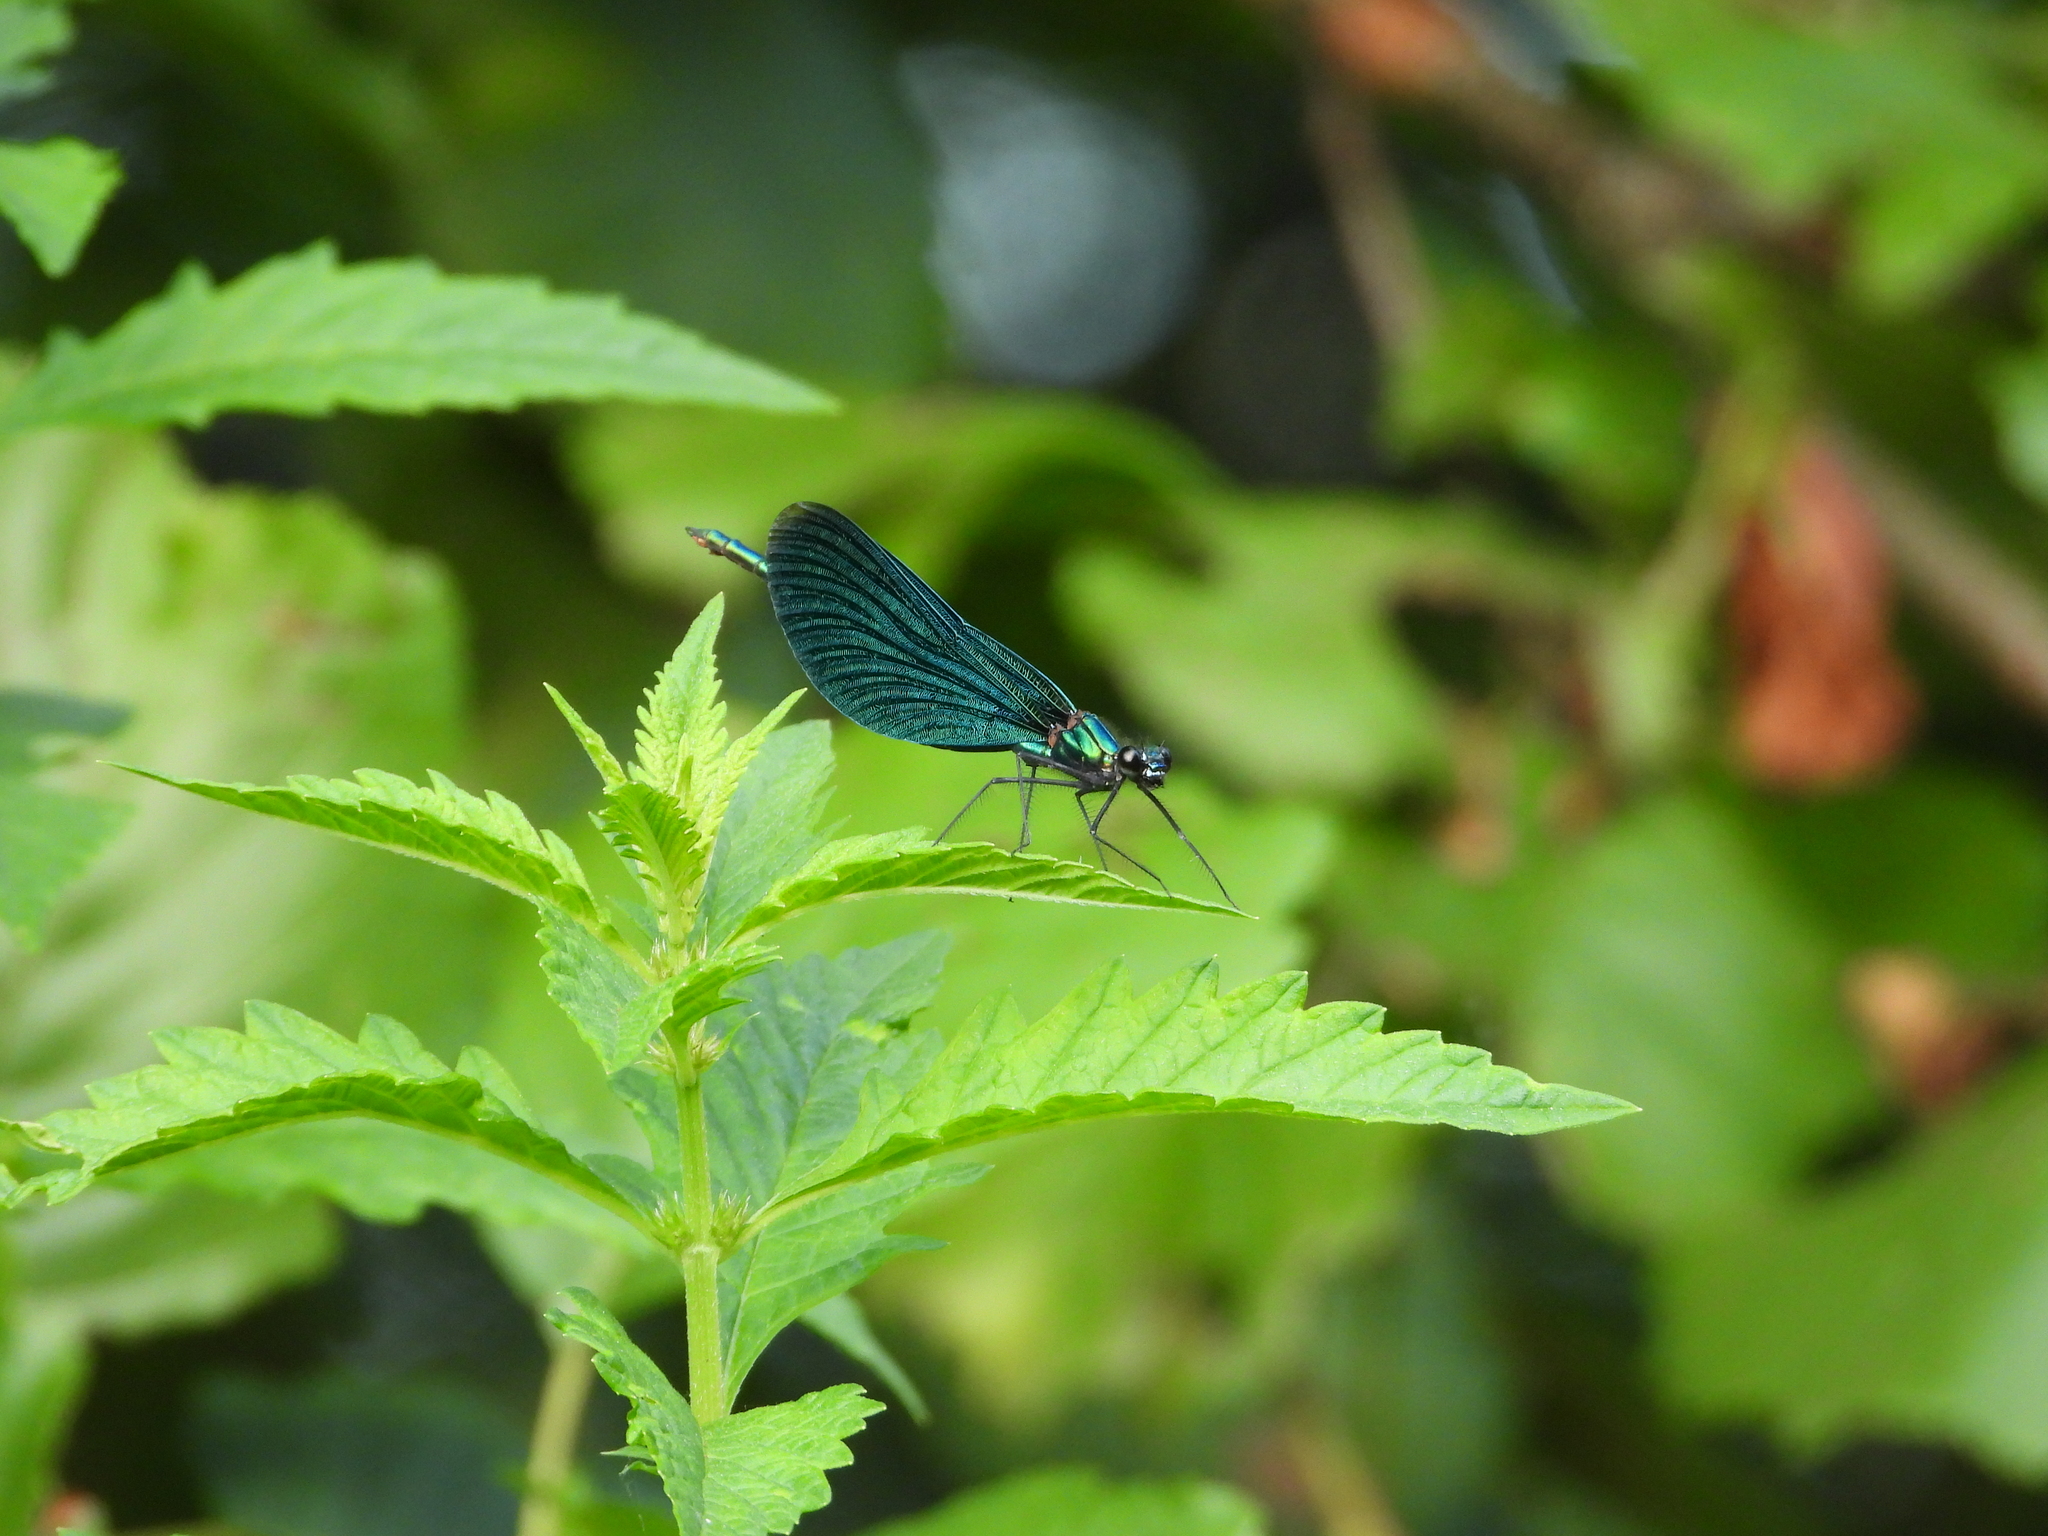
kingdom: Animalia
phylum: Arthropoda
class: Insecta
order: Odonata
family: Calopterygidae
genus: Calopteryx
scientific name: Calopteryx virgo
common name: Beautiful demoiselle
